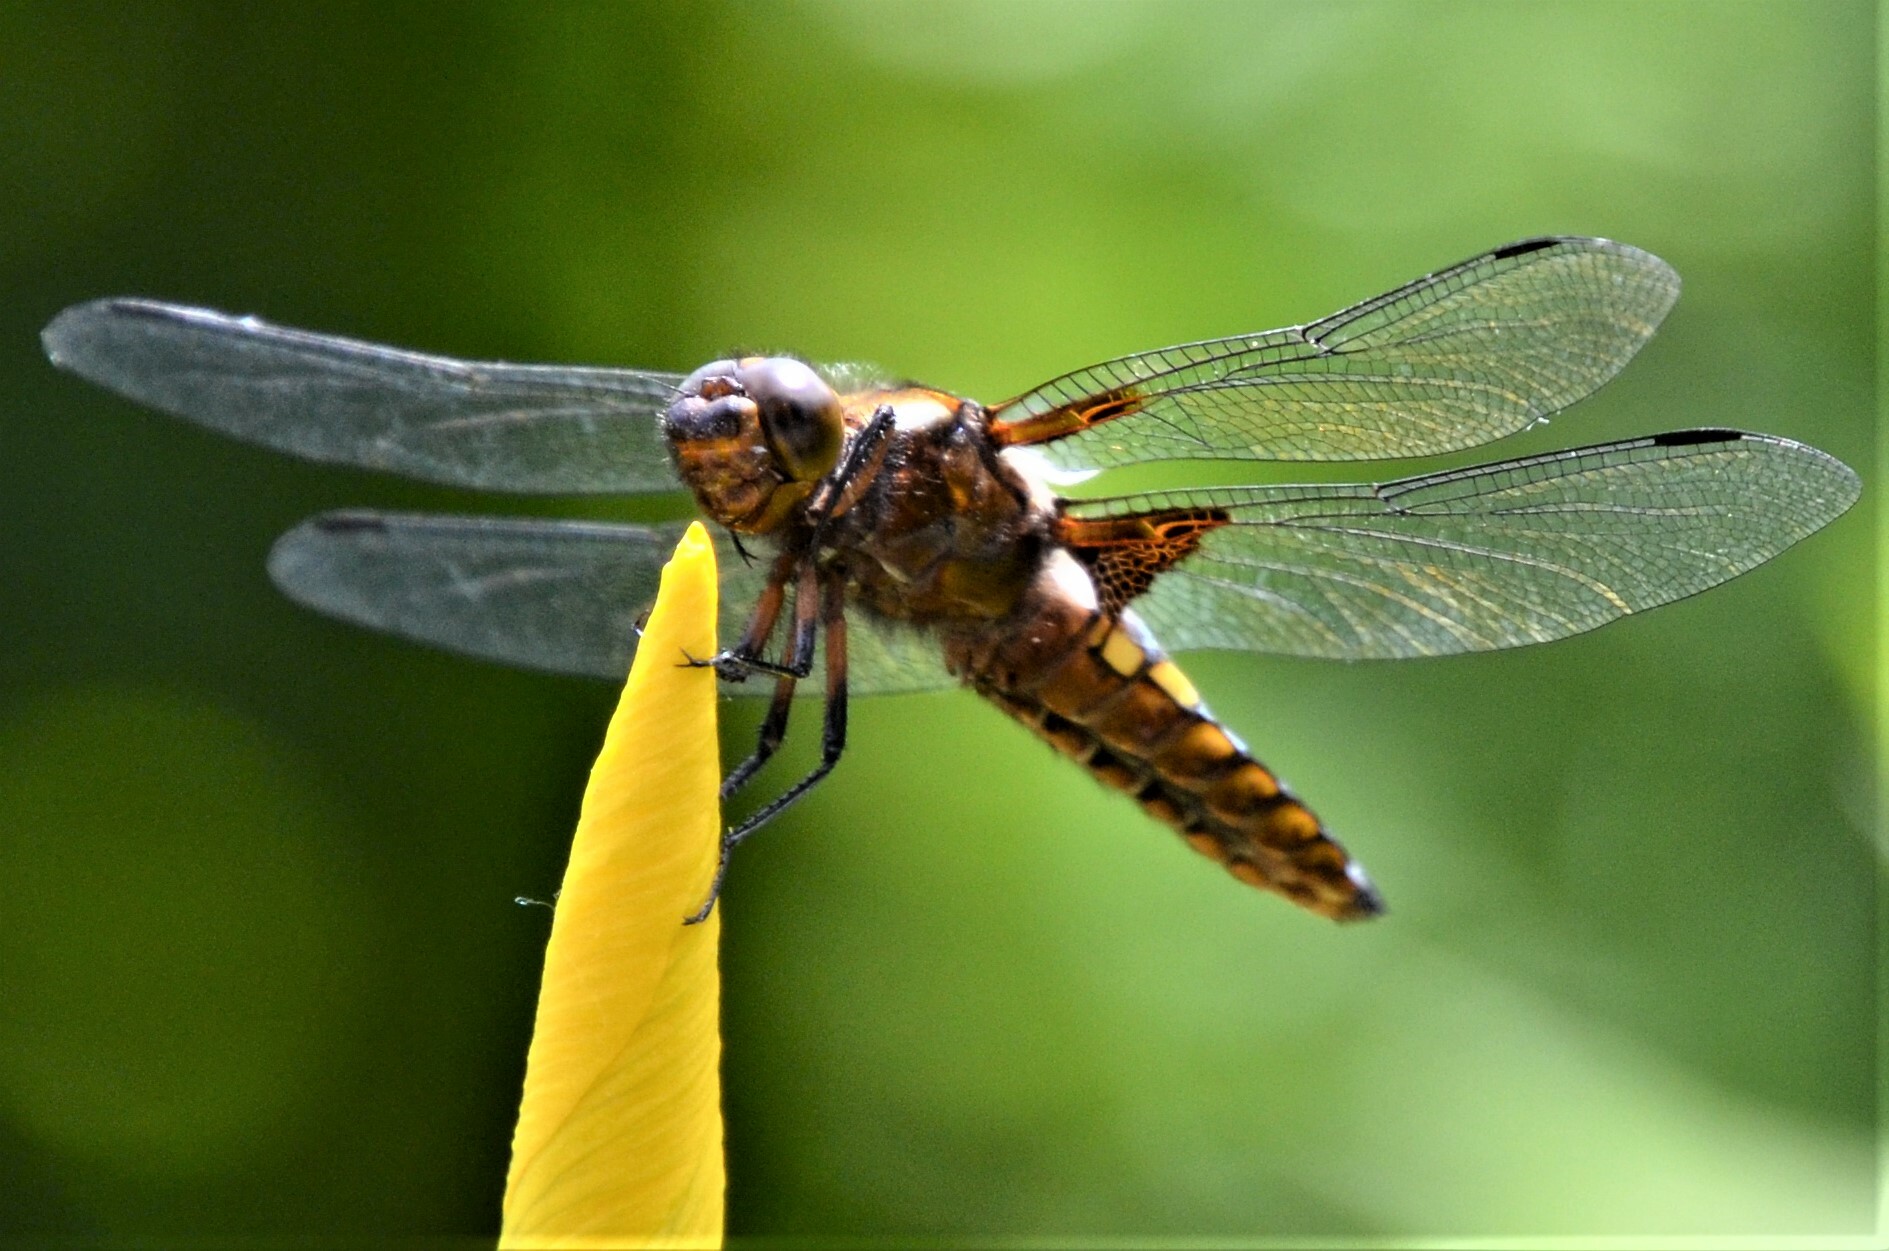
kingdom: Animalia
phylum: Arthropoda
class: Insecta
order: Odonata
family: Libellulidae
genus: Libellula
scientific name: Libellula depressa
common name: Broad-bodied chaser
